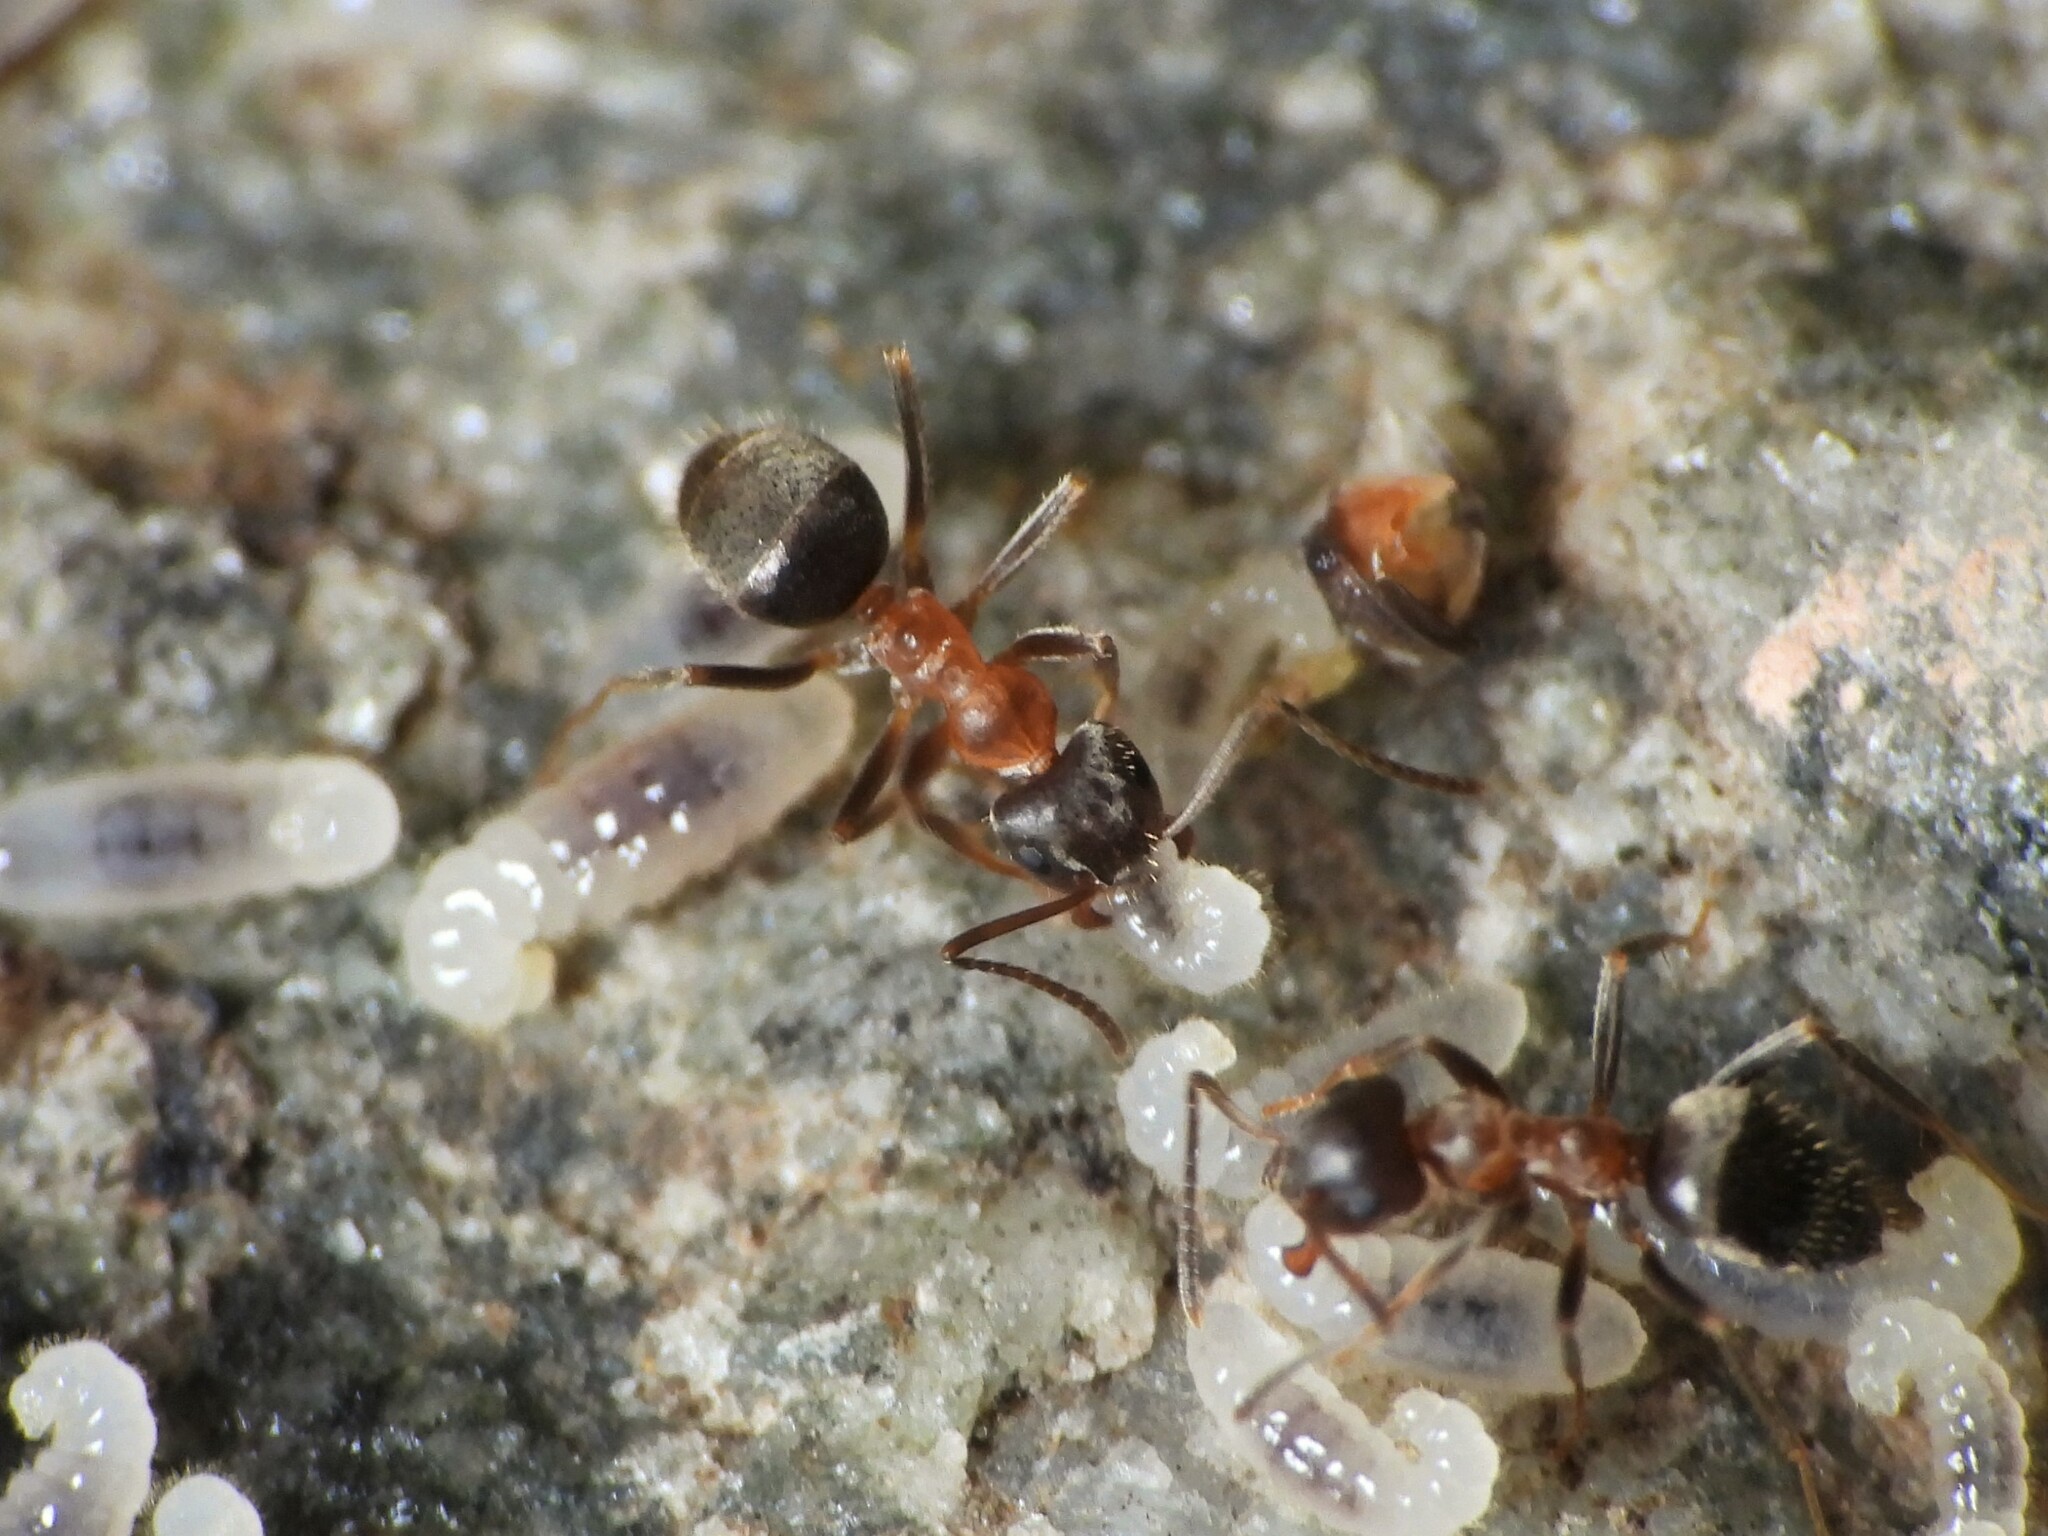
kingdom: Animalia
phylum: Arthropoda
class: Insecta
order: Hymenoptera
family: Formicidae
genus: Lasius
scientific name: Lasius emarginatus
